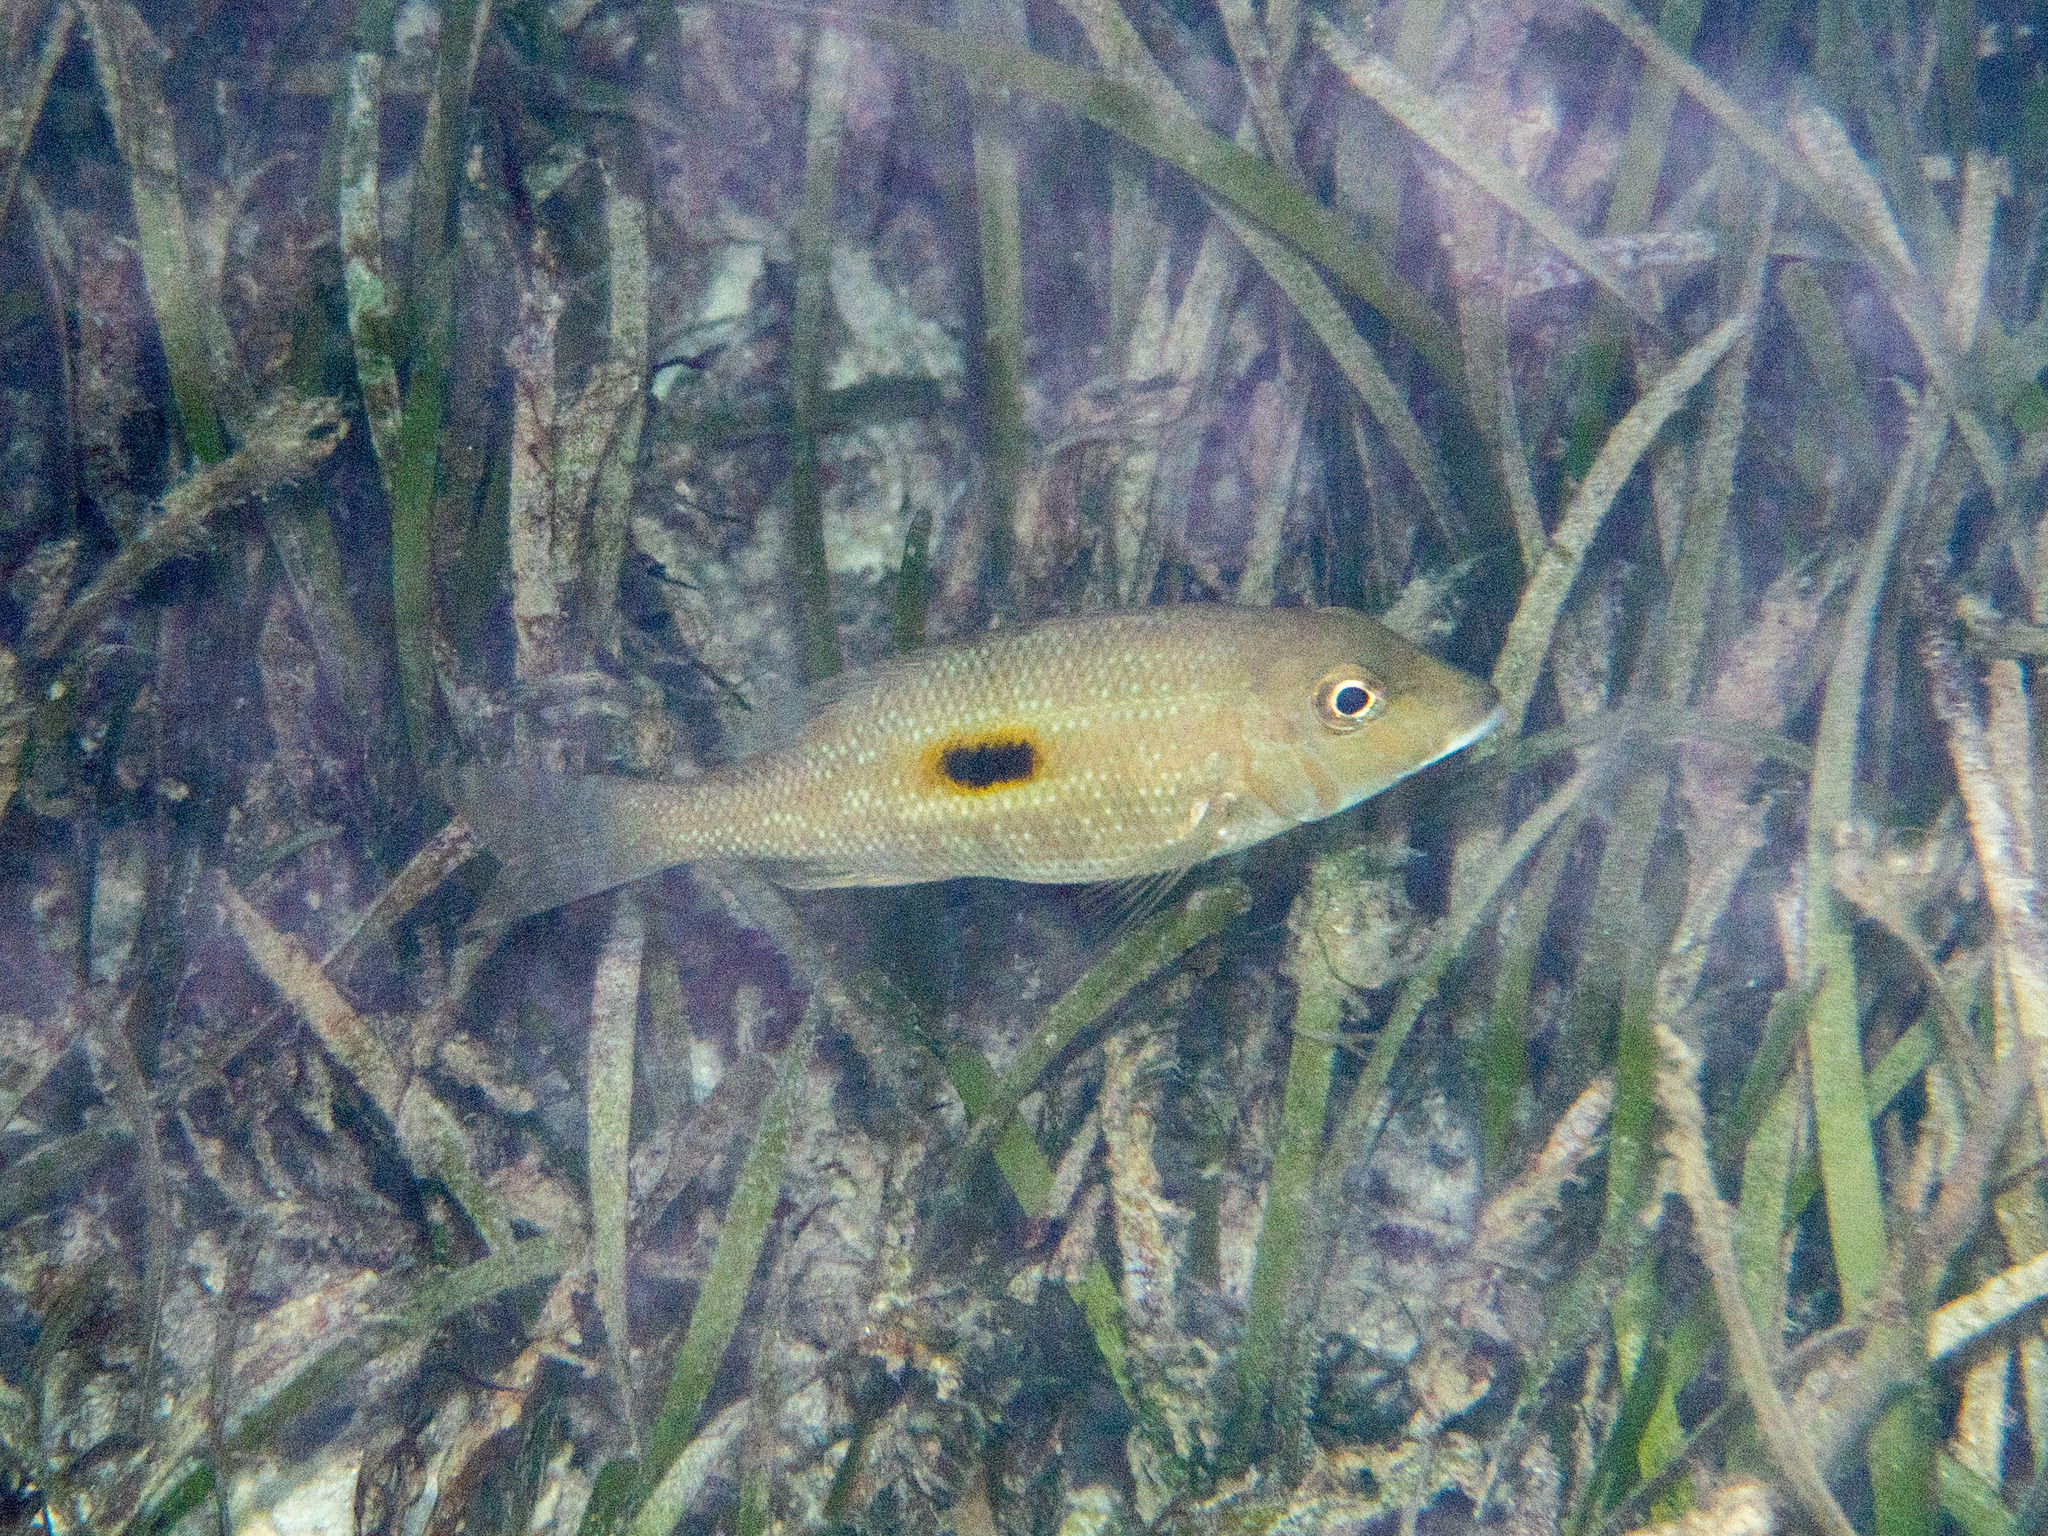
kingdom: Animalia
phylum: Chordata
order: Perciformes
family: Lethrinidae
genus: Lethrinus
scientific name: Lethrinus harak
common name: Blackspot emperor
